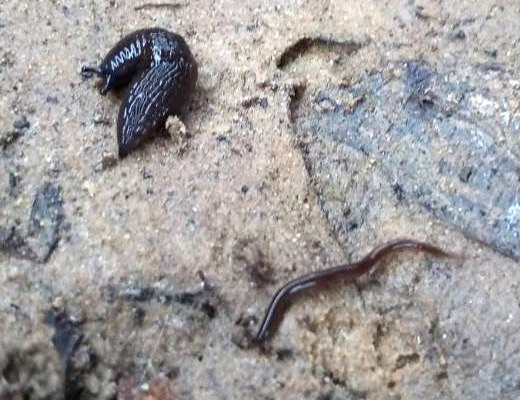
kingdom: Animalia
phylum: Mollusca
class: Gastropoda
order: Stylommatophora
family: Agriolimacidae
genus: Deroceras
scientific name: Deroceras laeve
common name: Marsh slug
